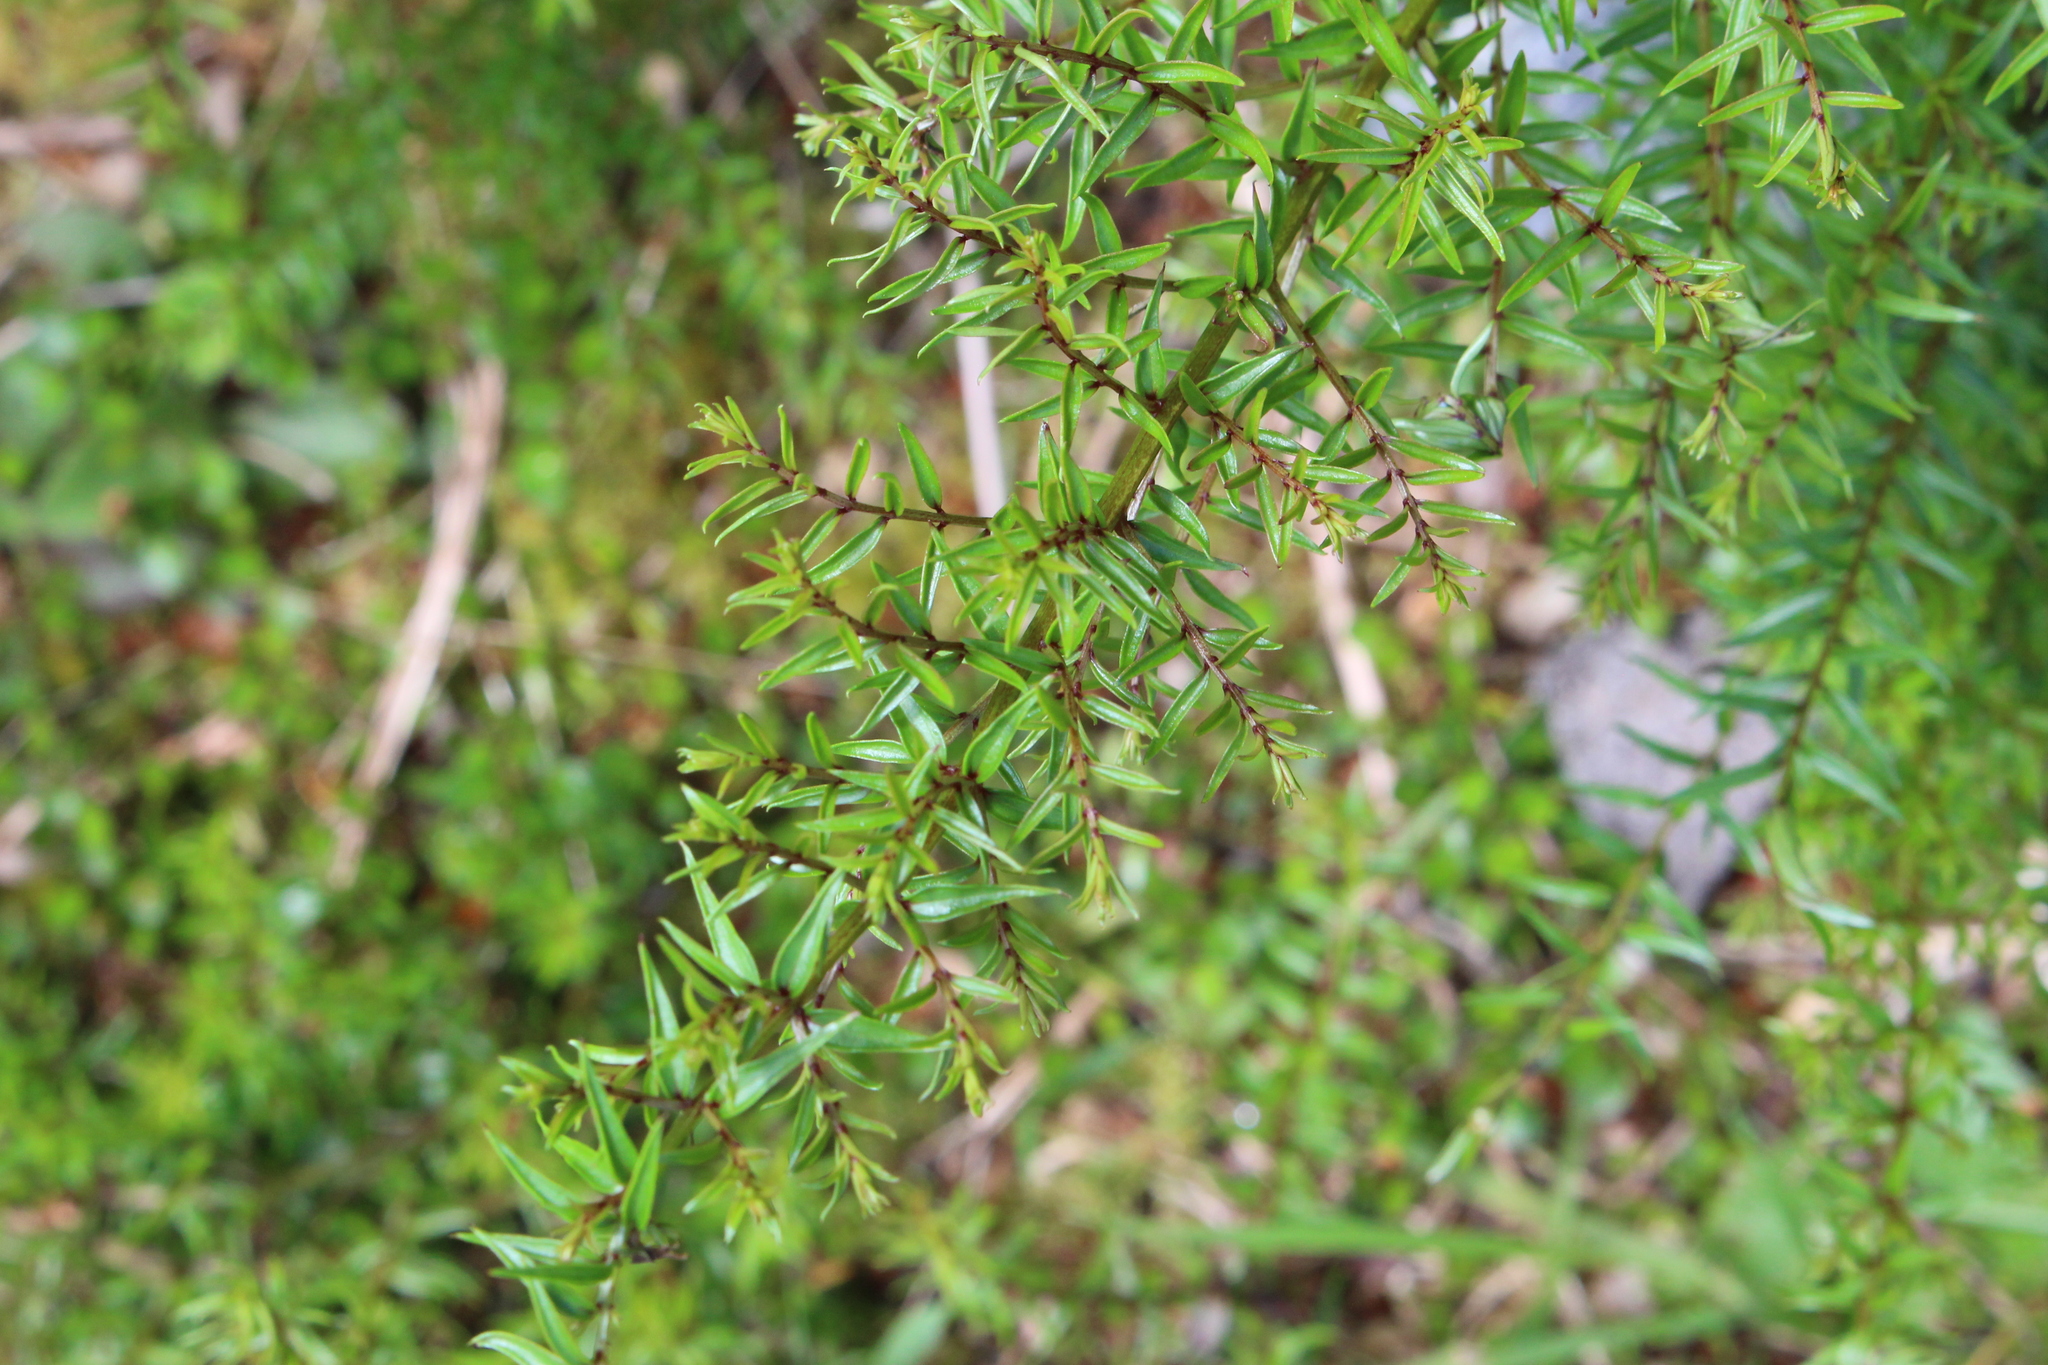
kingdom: Plantae
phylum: Tracheophyta
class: Magnoliopsida
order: Cucurbitales
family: Coriariaceae
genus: Coriaria
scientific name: Coriaria plumosa
